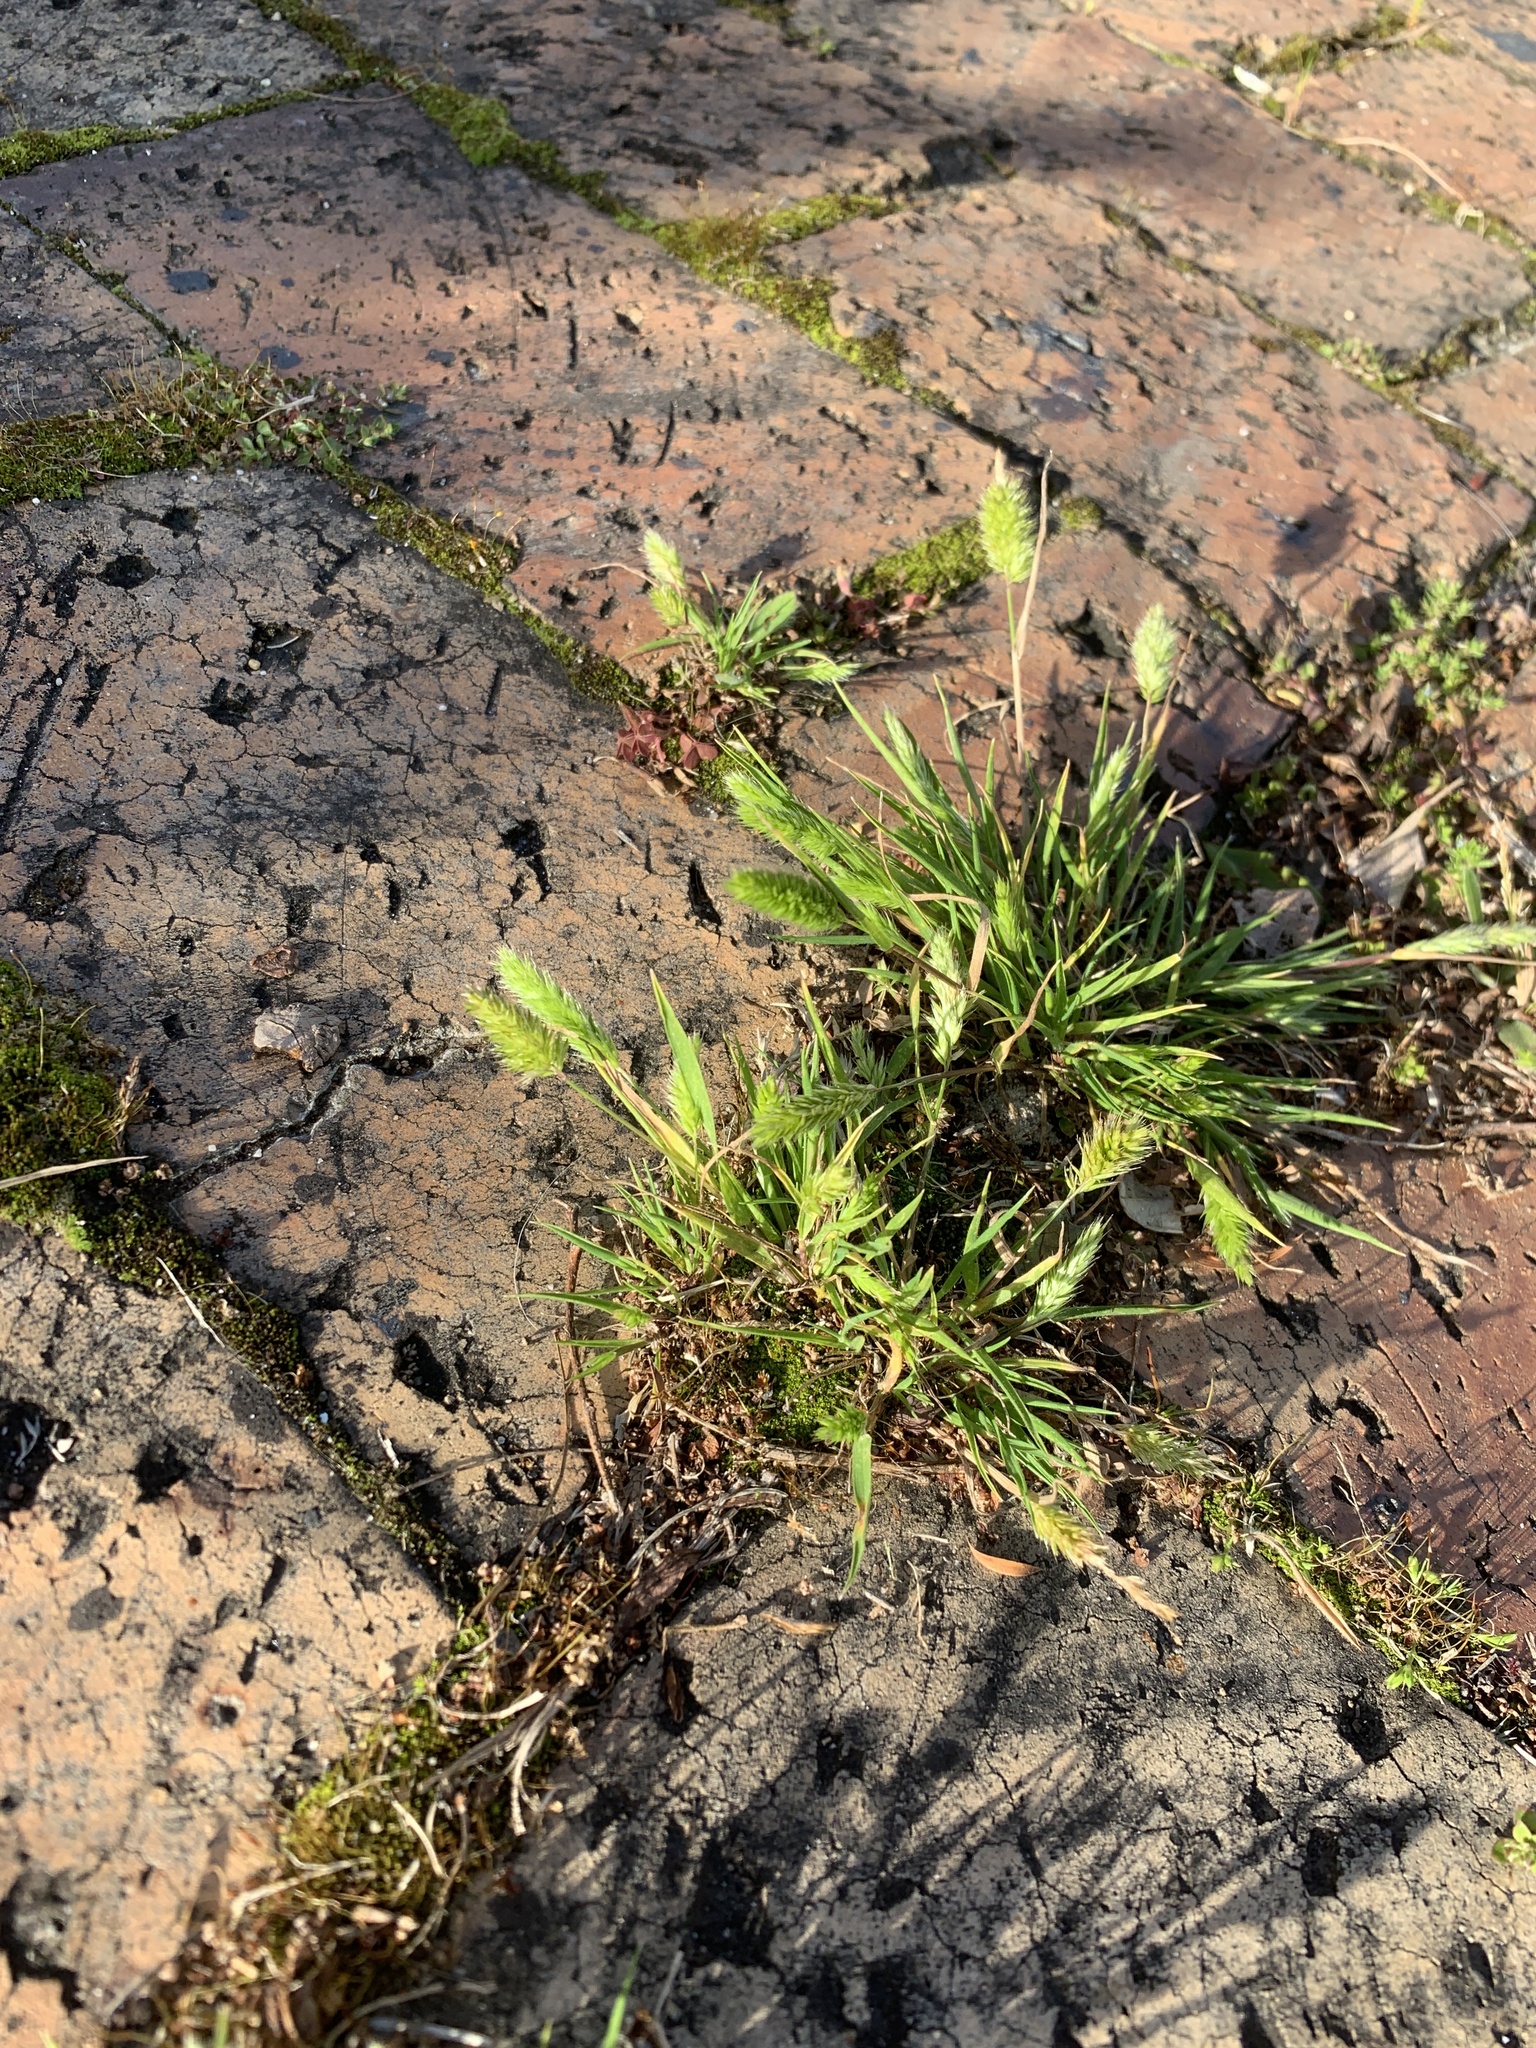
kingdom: Plantae
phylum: Tracheophyta
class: Liliopsida
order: Poales
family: Poaceae
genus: Rostraria
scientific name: Rostraria cristata
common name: Mediterranean hair-grass
